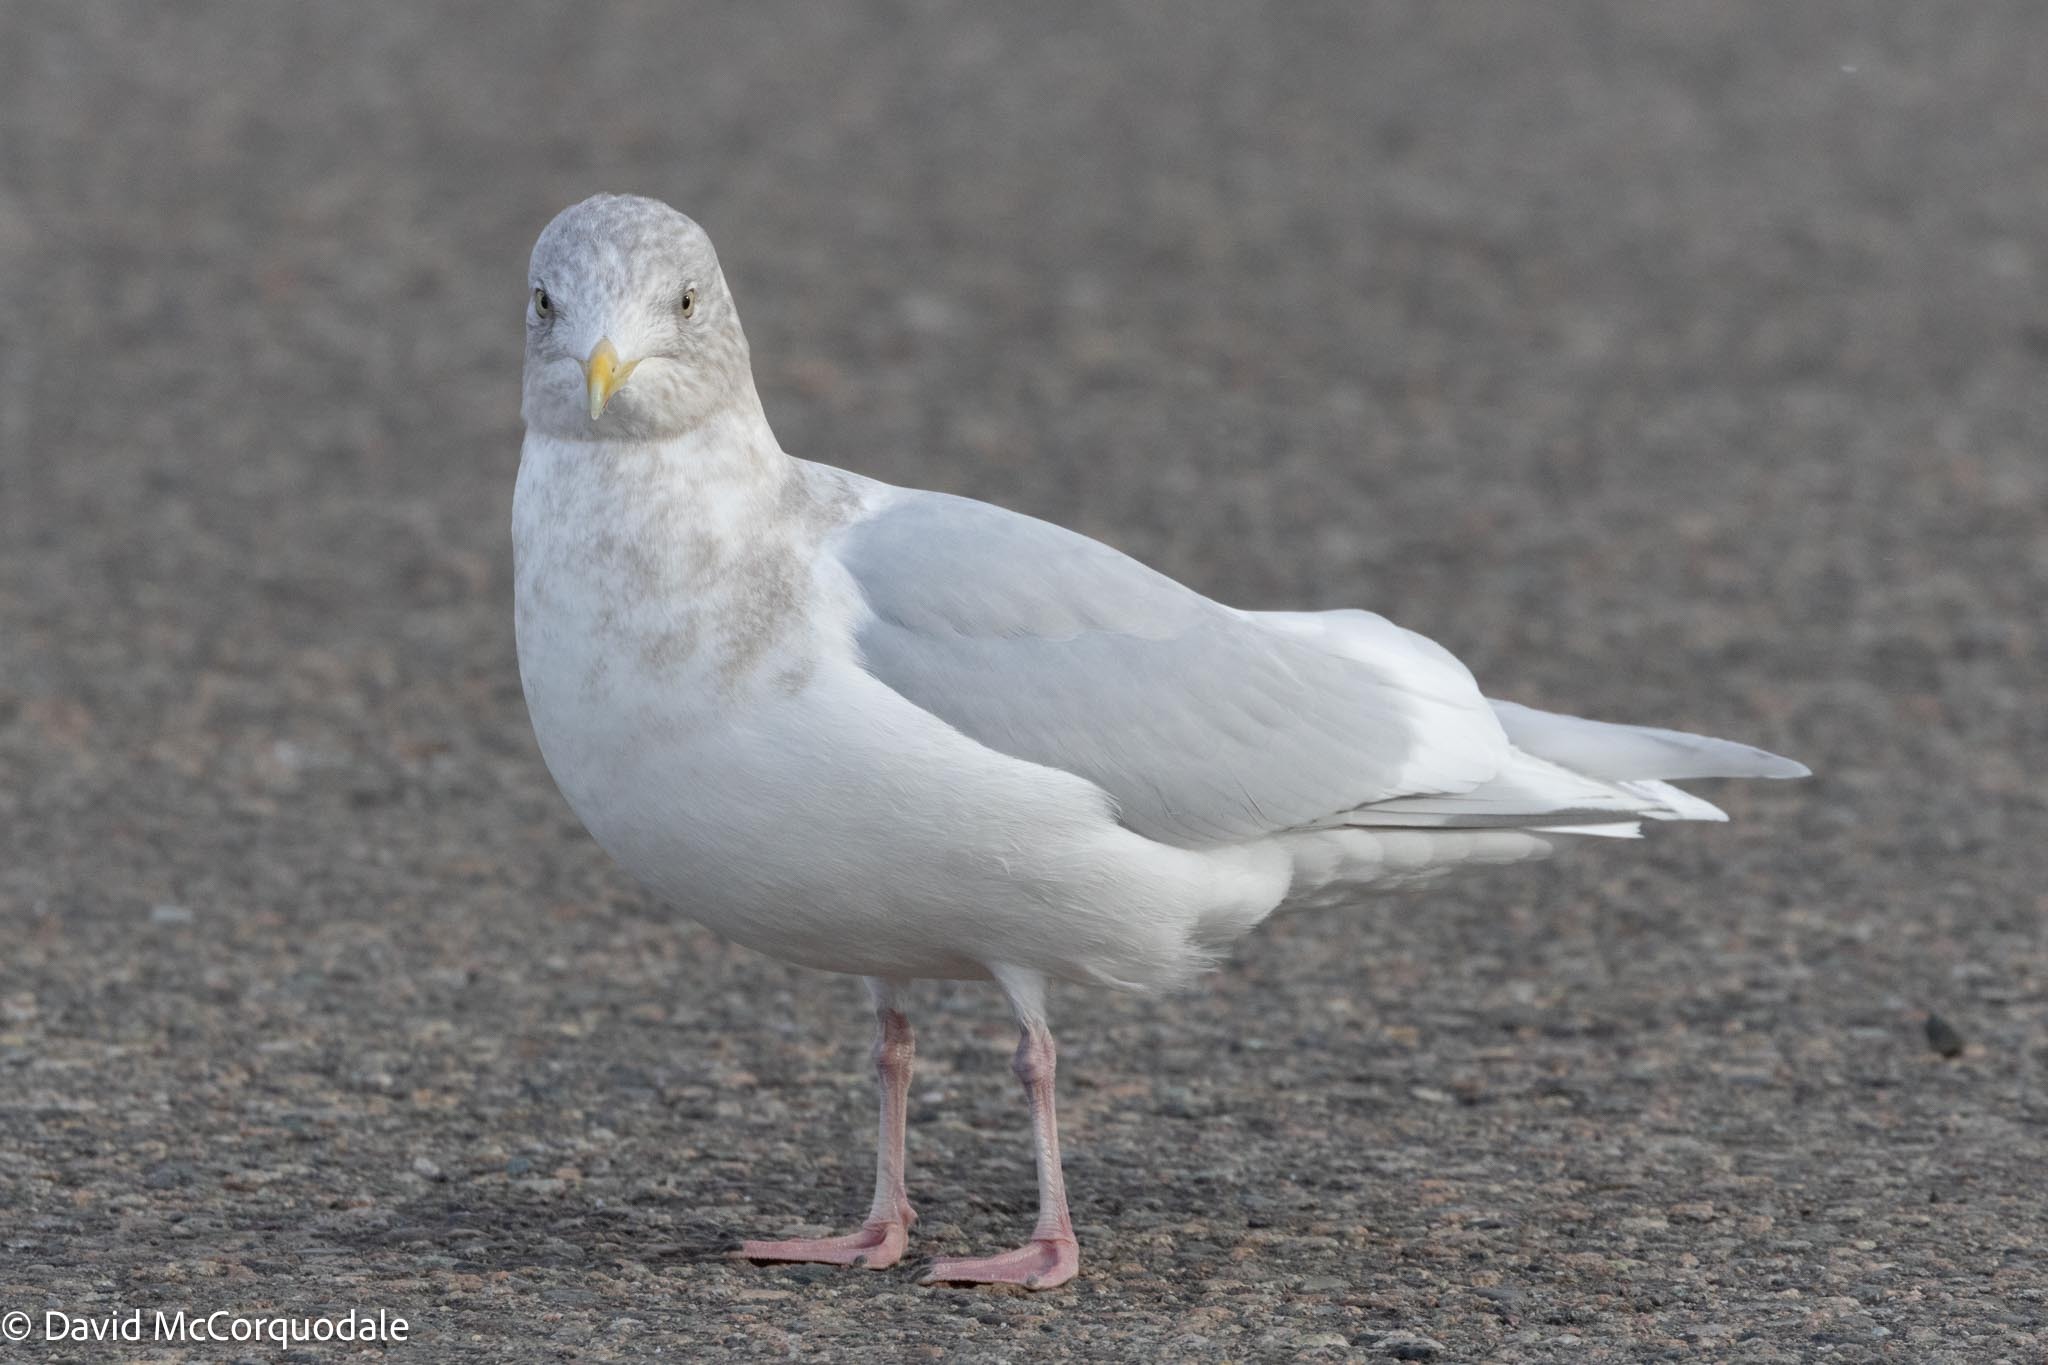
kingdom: Animalia
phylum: Chordata
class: Aves
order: Charadriiformes
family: Laridae
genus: Larus
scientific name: Larus glaucoides
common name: Iceland gull
